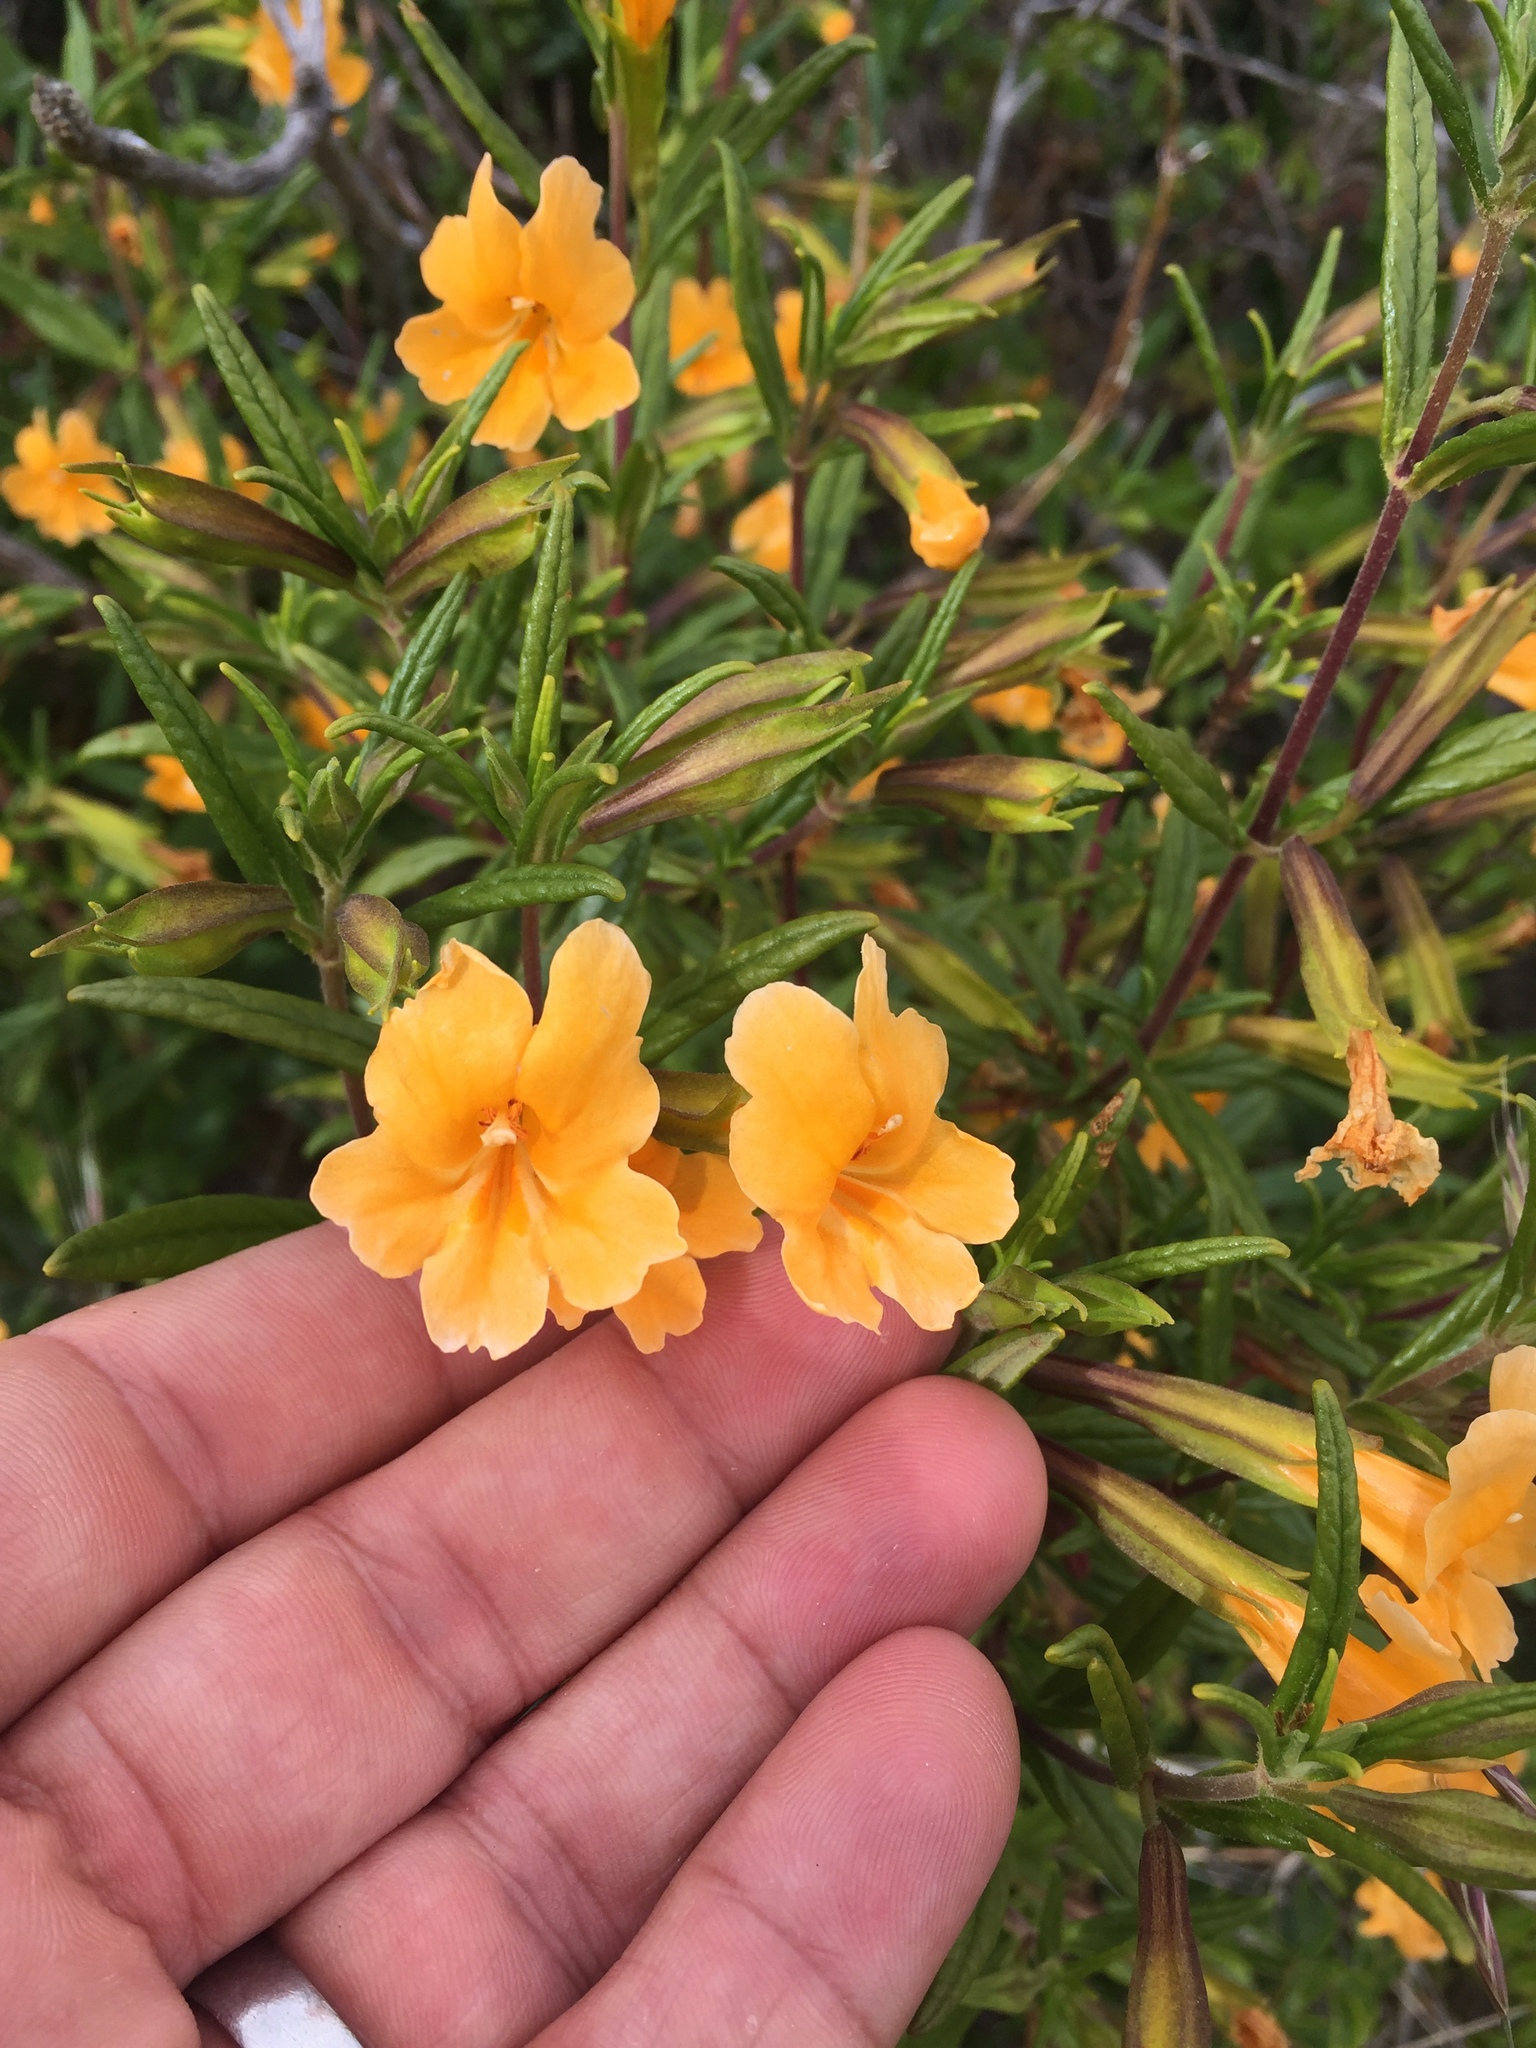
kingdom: Plantae
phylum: Tracheophyta
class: Magnoliopsida
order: Lamiales
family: Phrymaceae
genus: Diplacus
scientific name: Diplacus aurantiacus
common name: Bush monkey-flower
